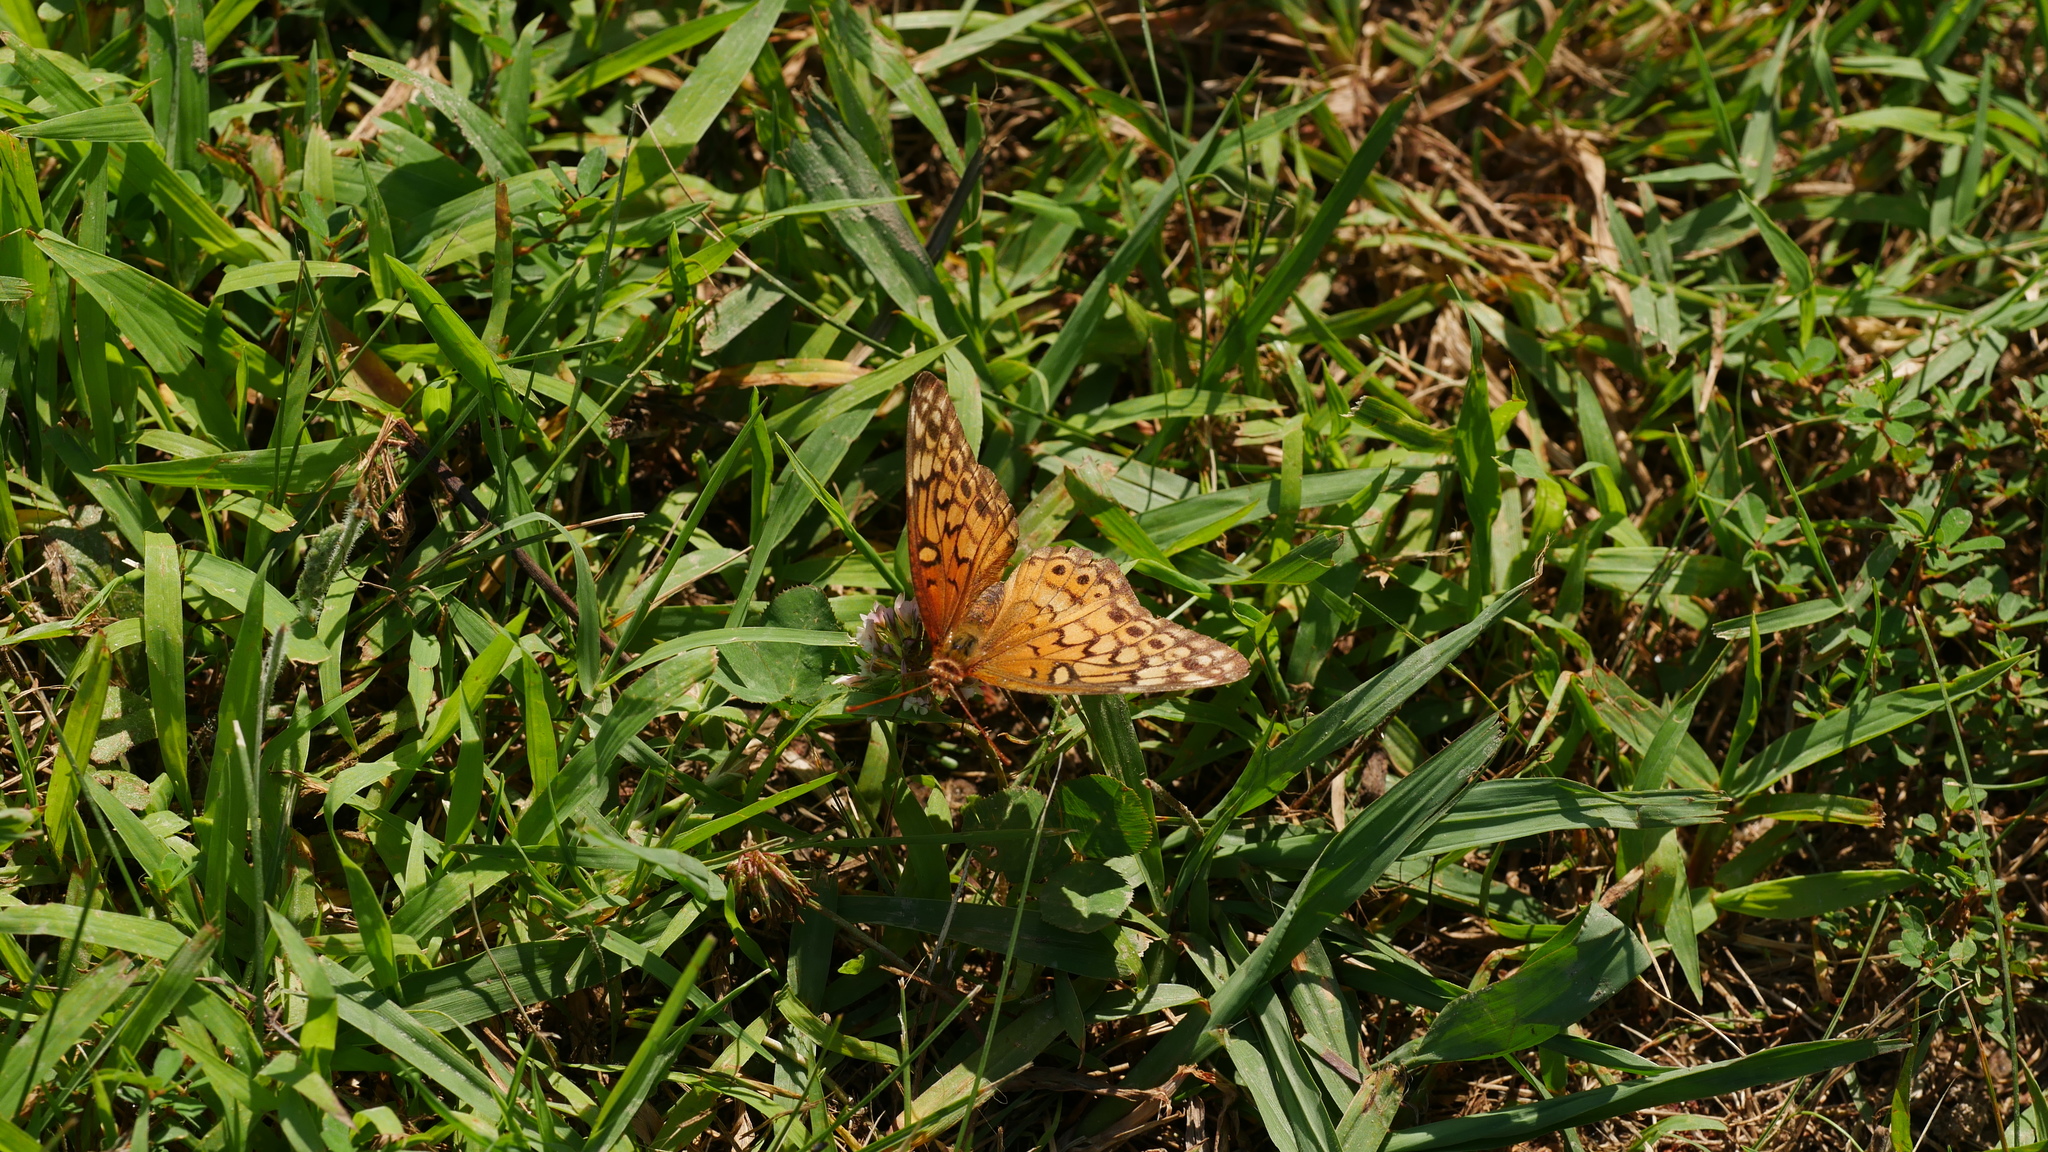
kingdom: Animalia
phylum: Arthropoda
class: Insecta
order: Lepidoptera
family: Nymphalidae
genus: Euptoieta
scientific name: Euptoieta claudia
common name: Variegated fritillary
